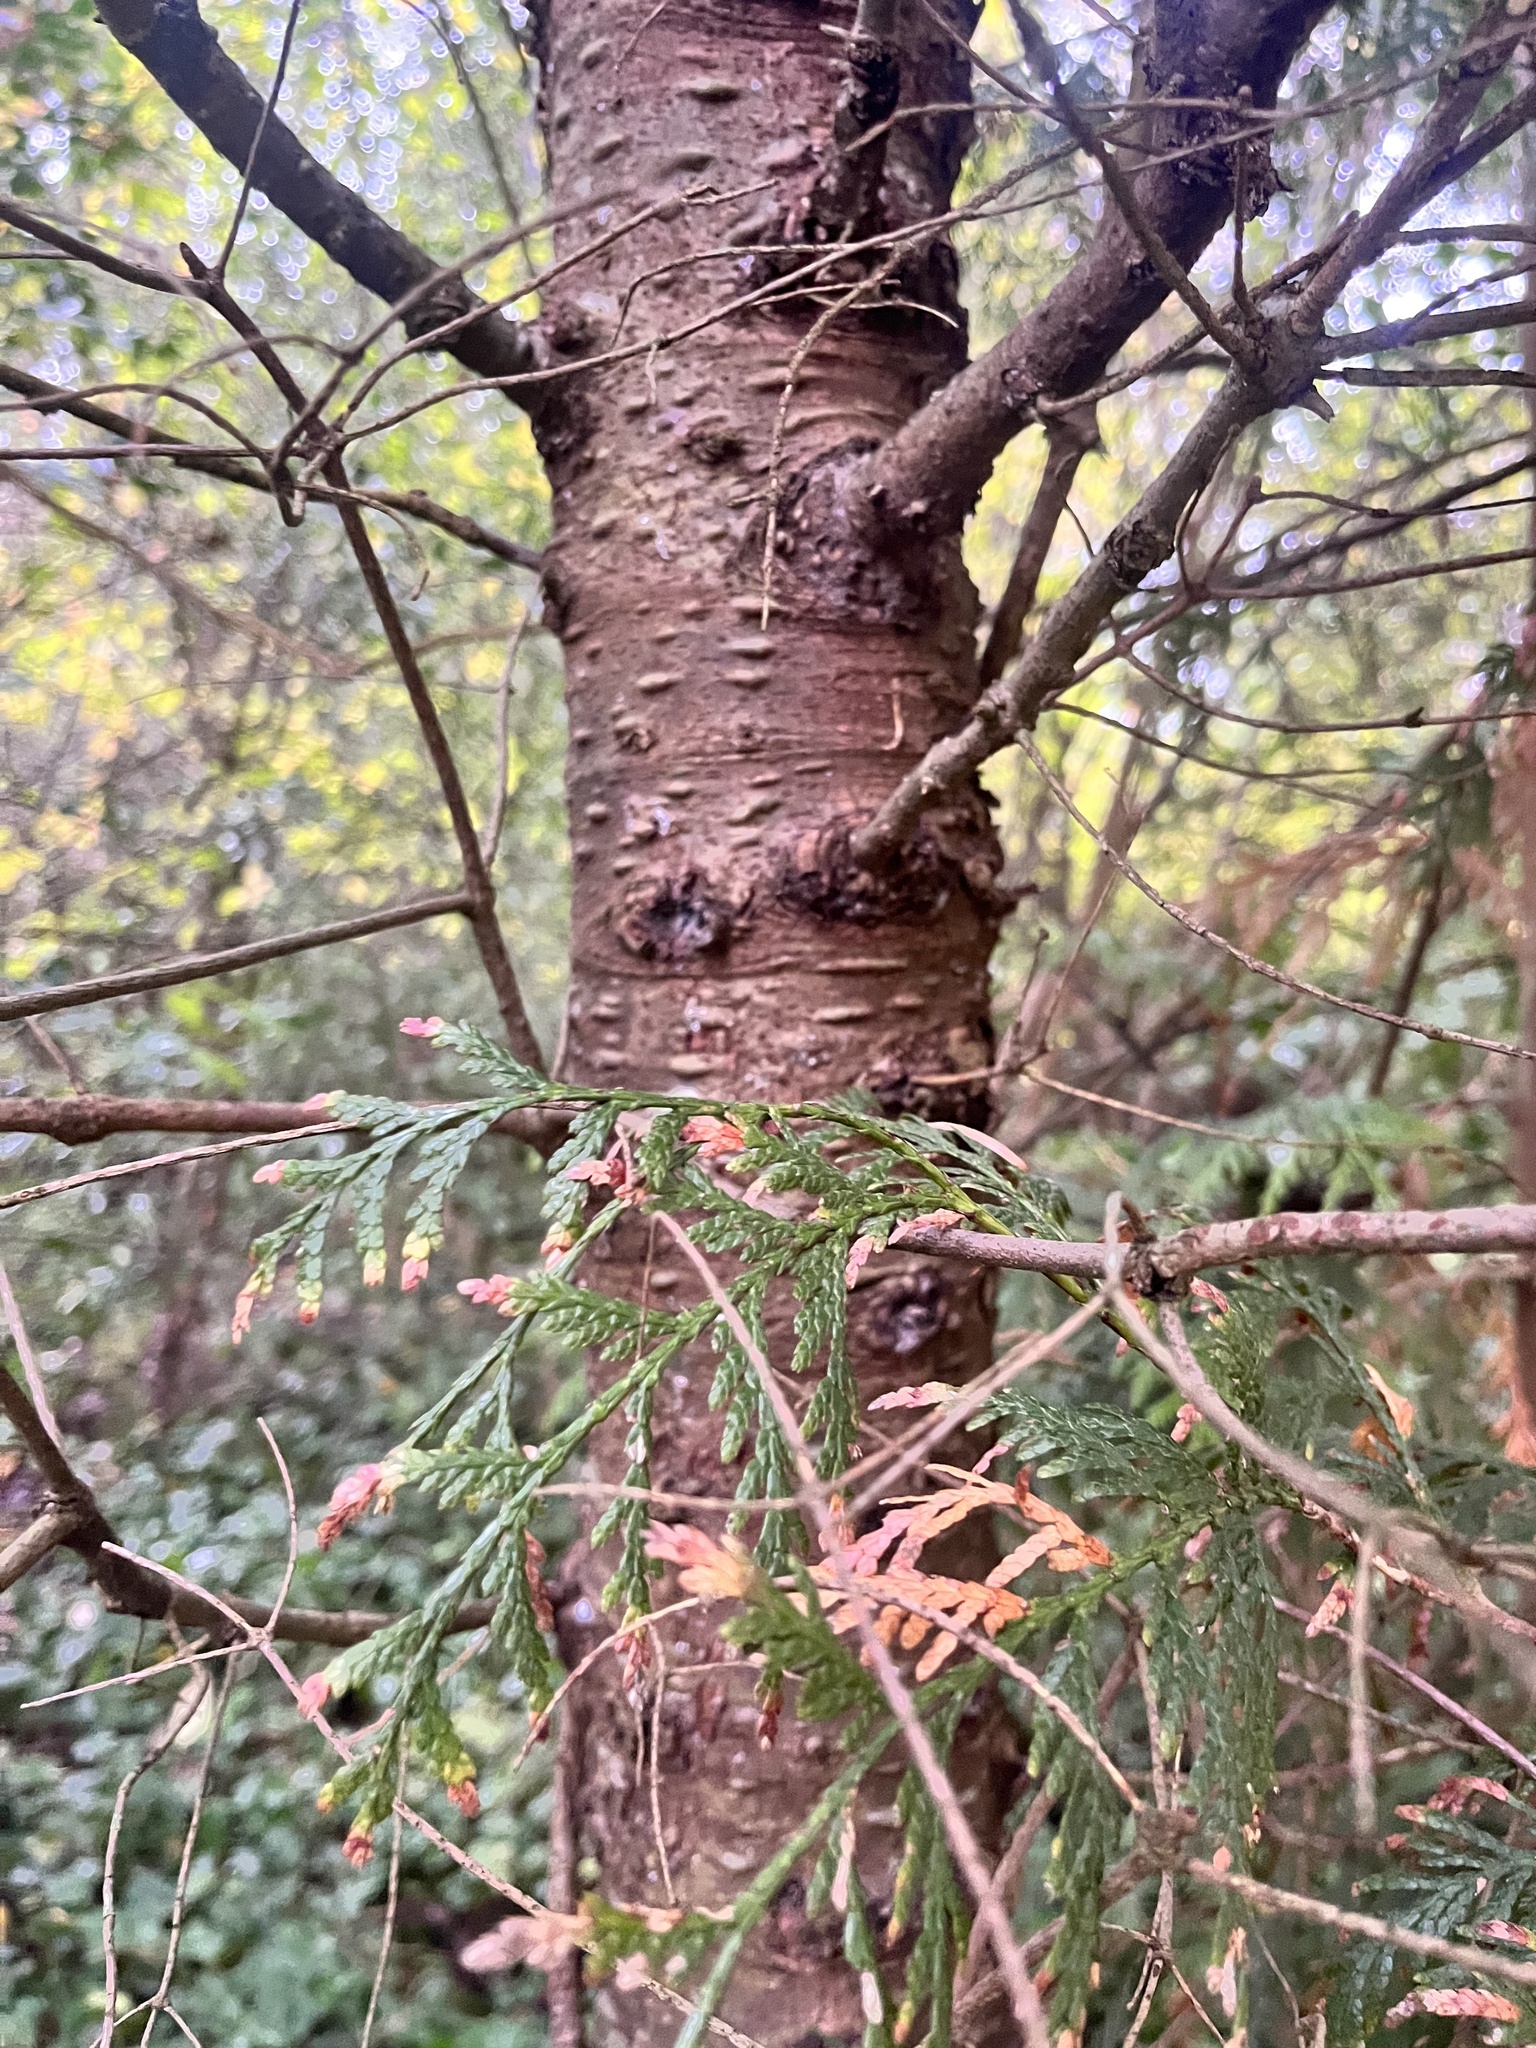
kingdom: Plantae
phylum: Tracheophyta
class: Pinopsida
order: Pinales
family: Cupressaceae
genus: Thuja
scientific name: Thuja plicata
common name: Western red-cedar
